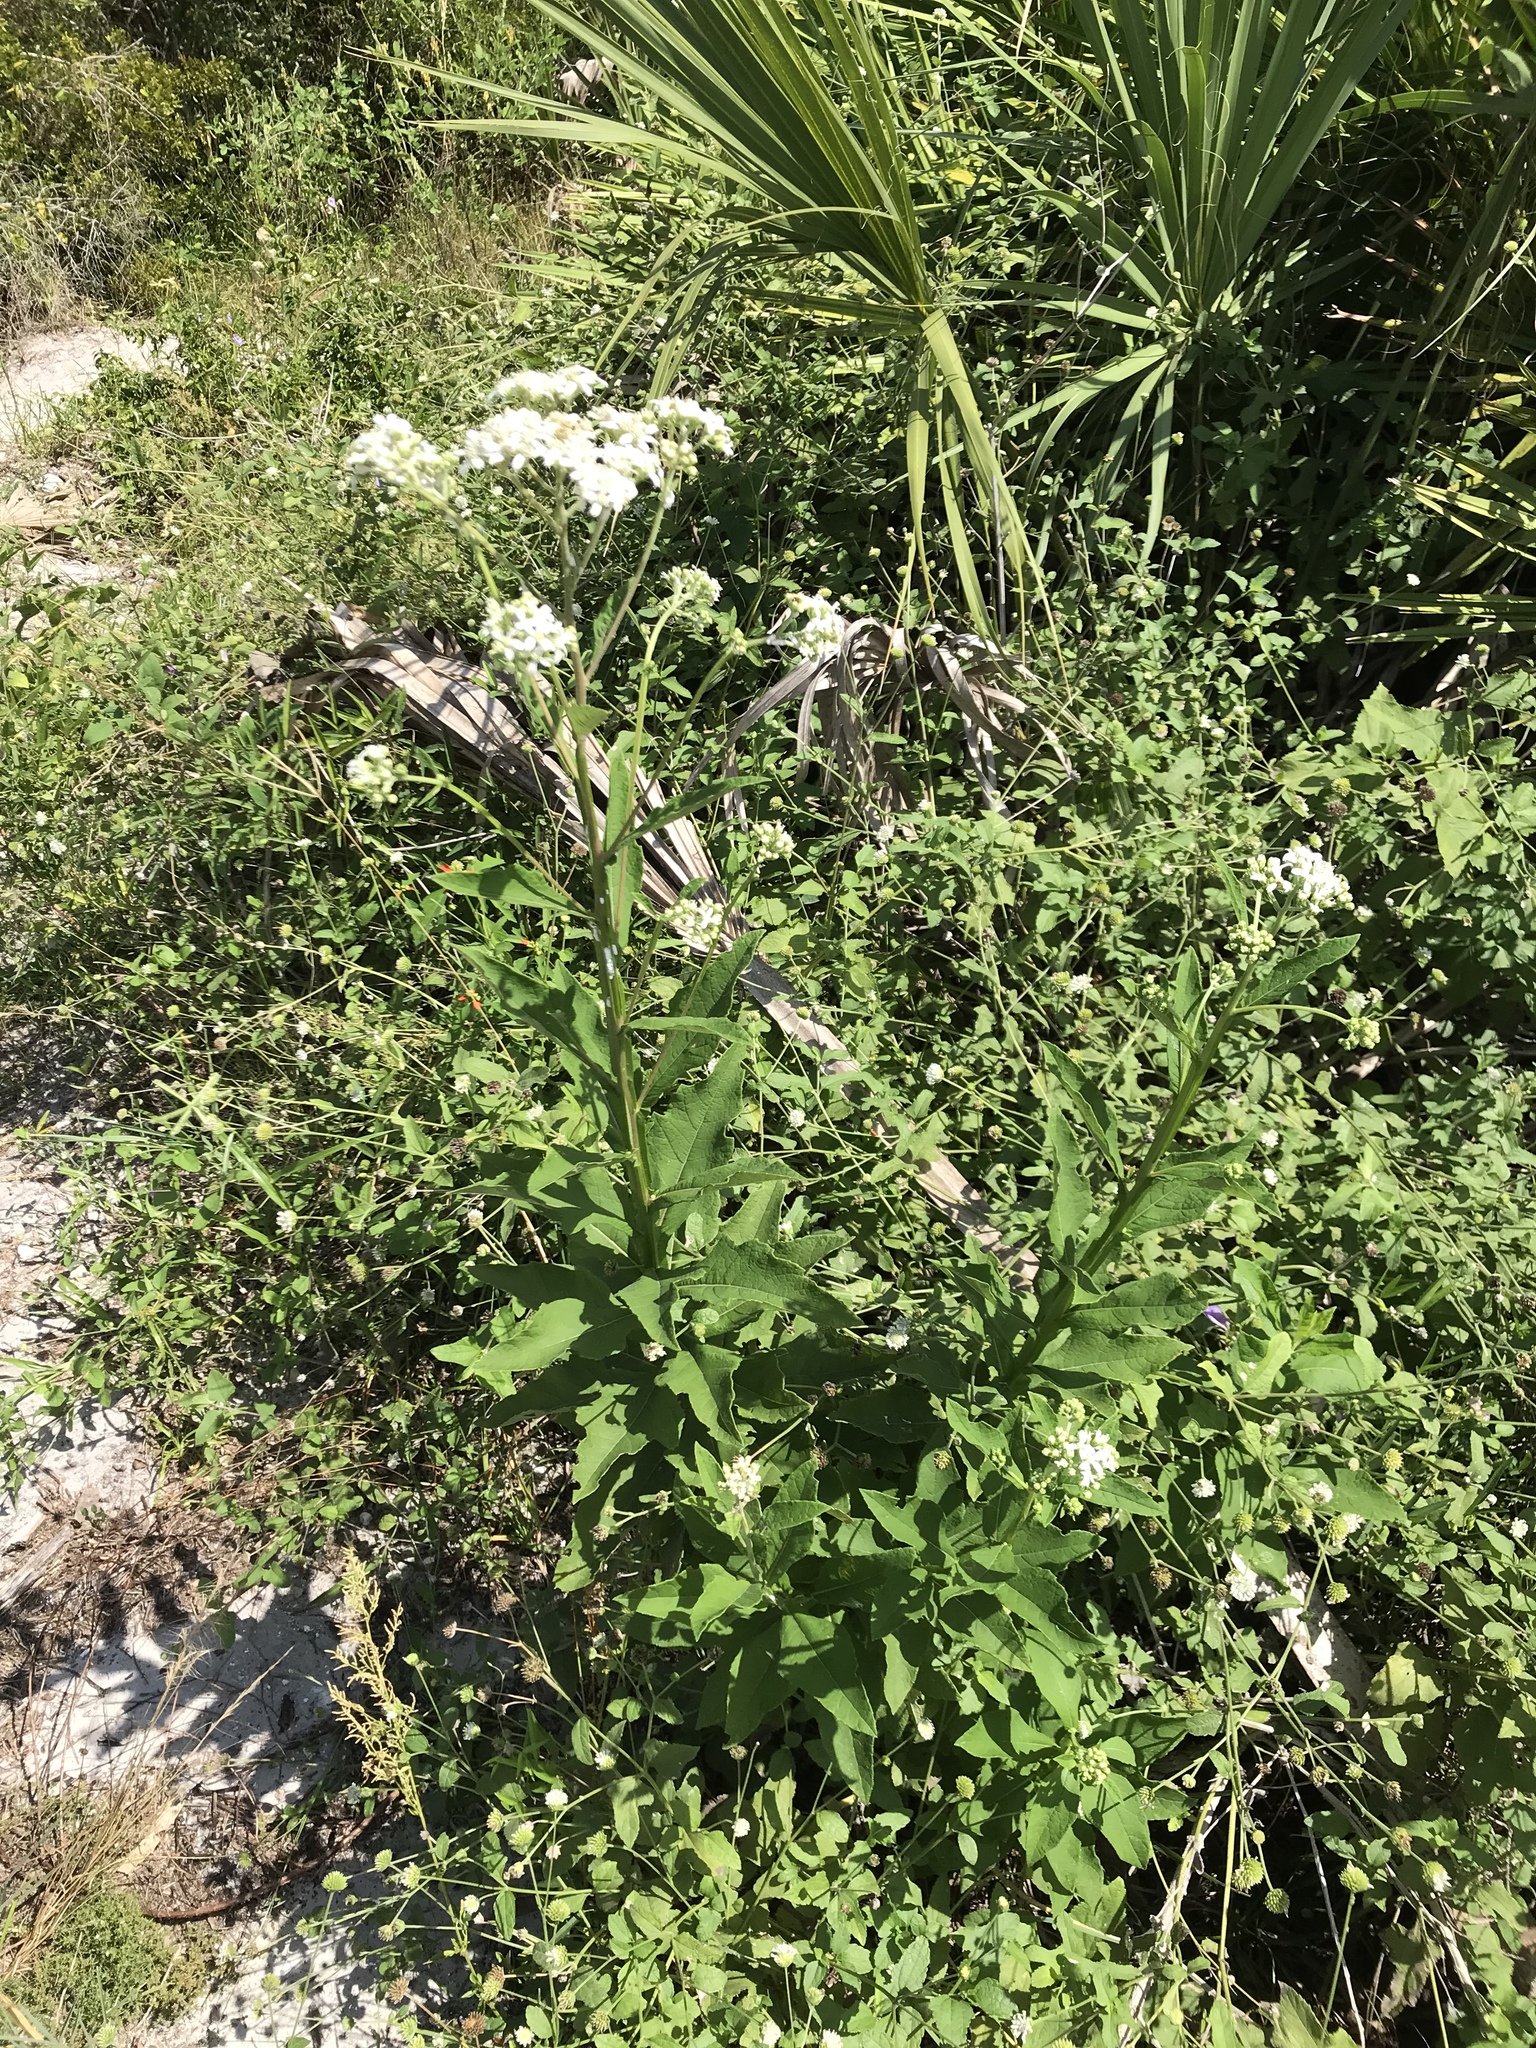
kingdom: Plantae
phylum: Tracheophyta
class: Magnoliopsida
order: Asterales
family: Asteraceae
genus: Verbesina
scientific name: Verbesina virginica
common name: Frostweed
